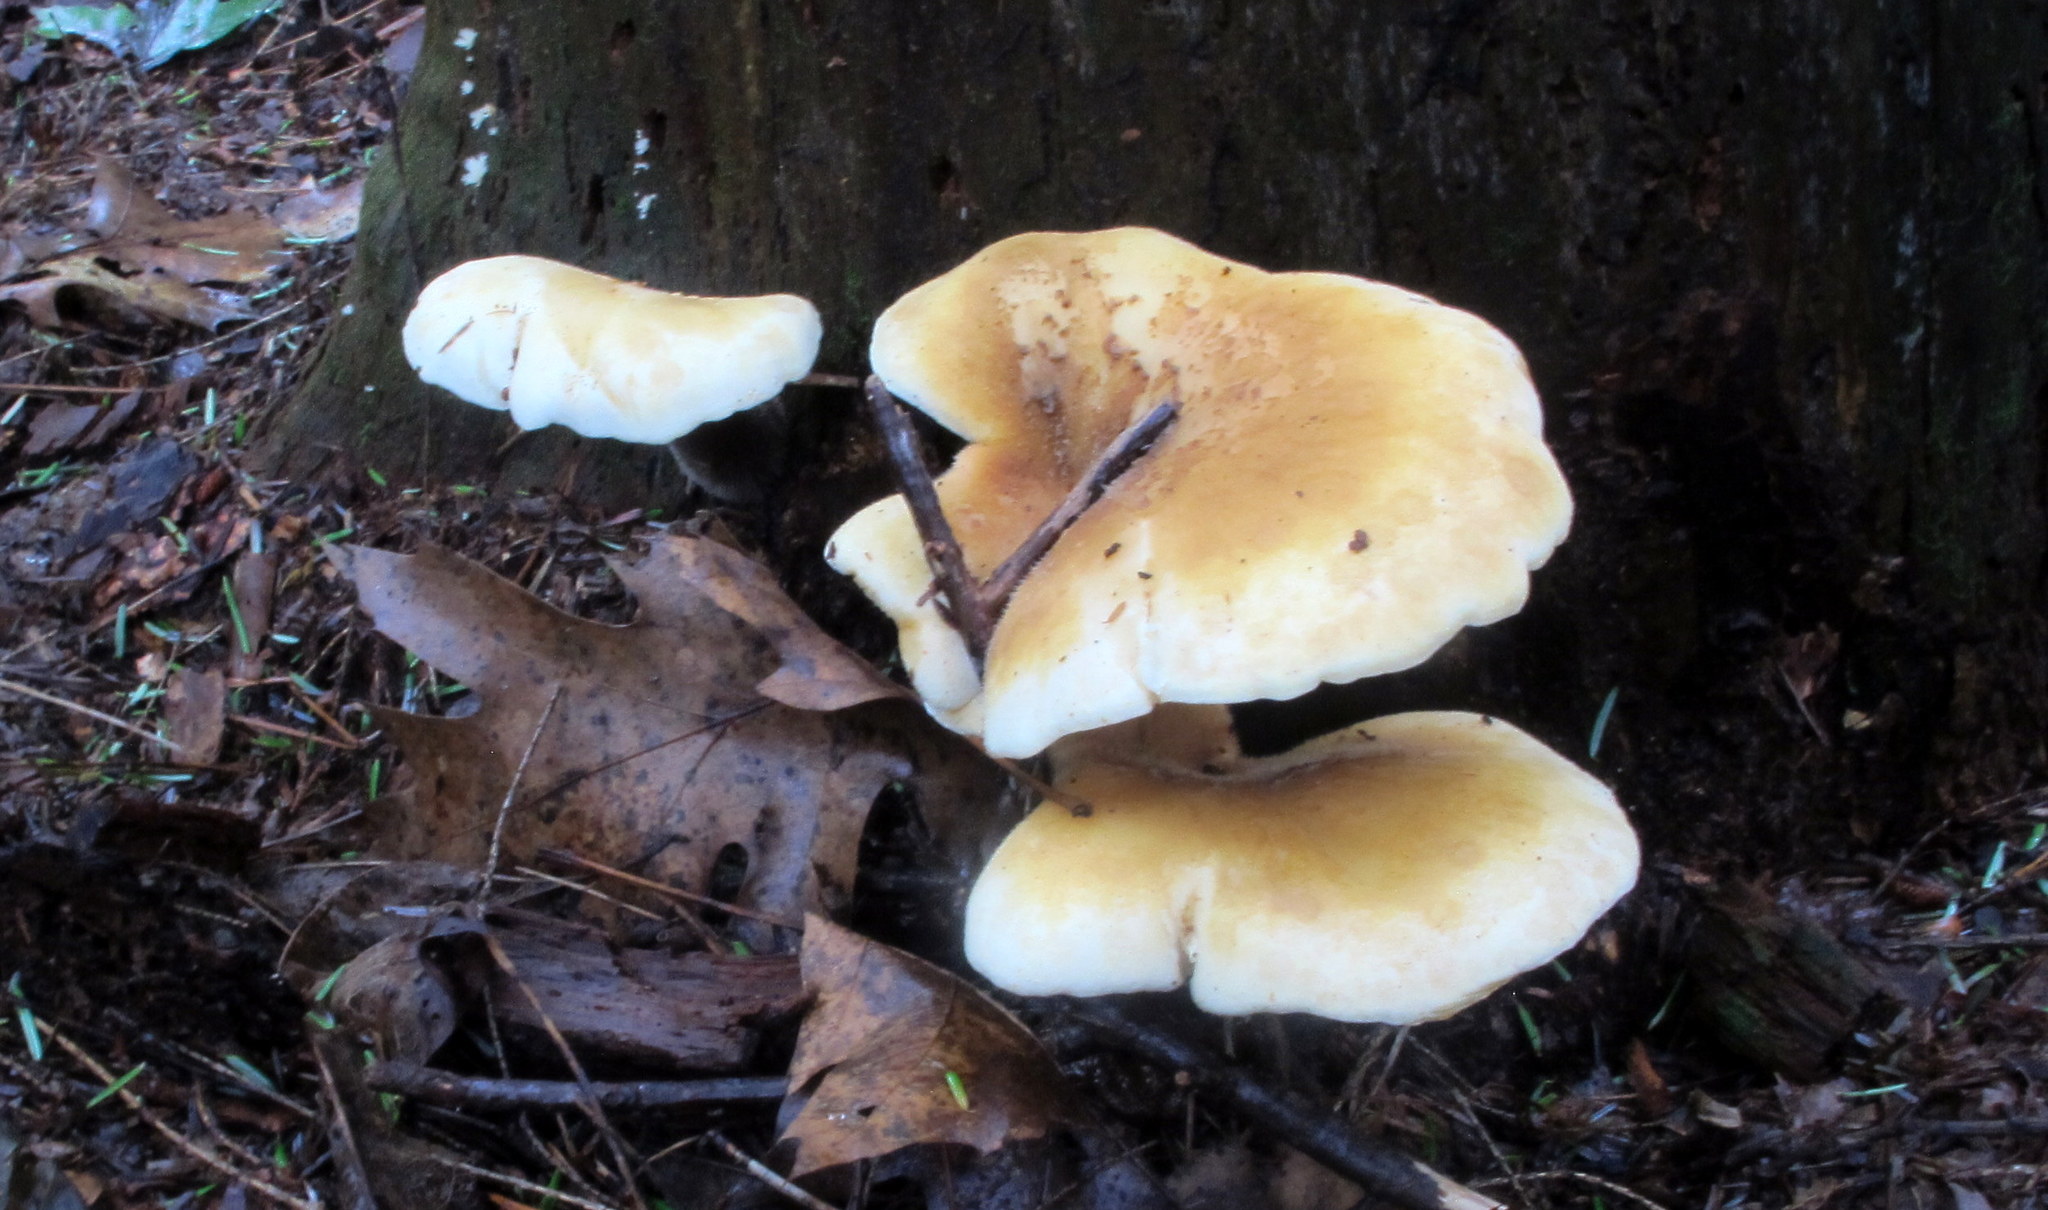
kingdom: Fungi
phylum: Basidiomycota
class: Agaricomycetes
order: Boletales
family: Tapinellaceae
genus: Tapinella
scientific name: Tapinella atrotomentosa
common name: Velvet rollrim
